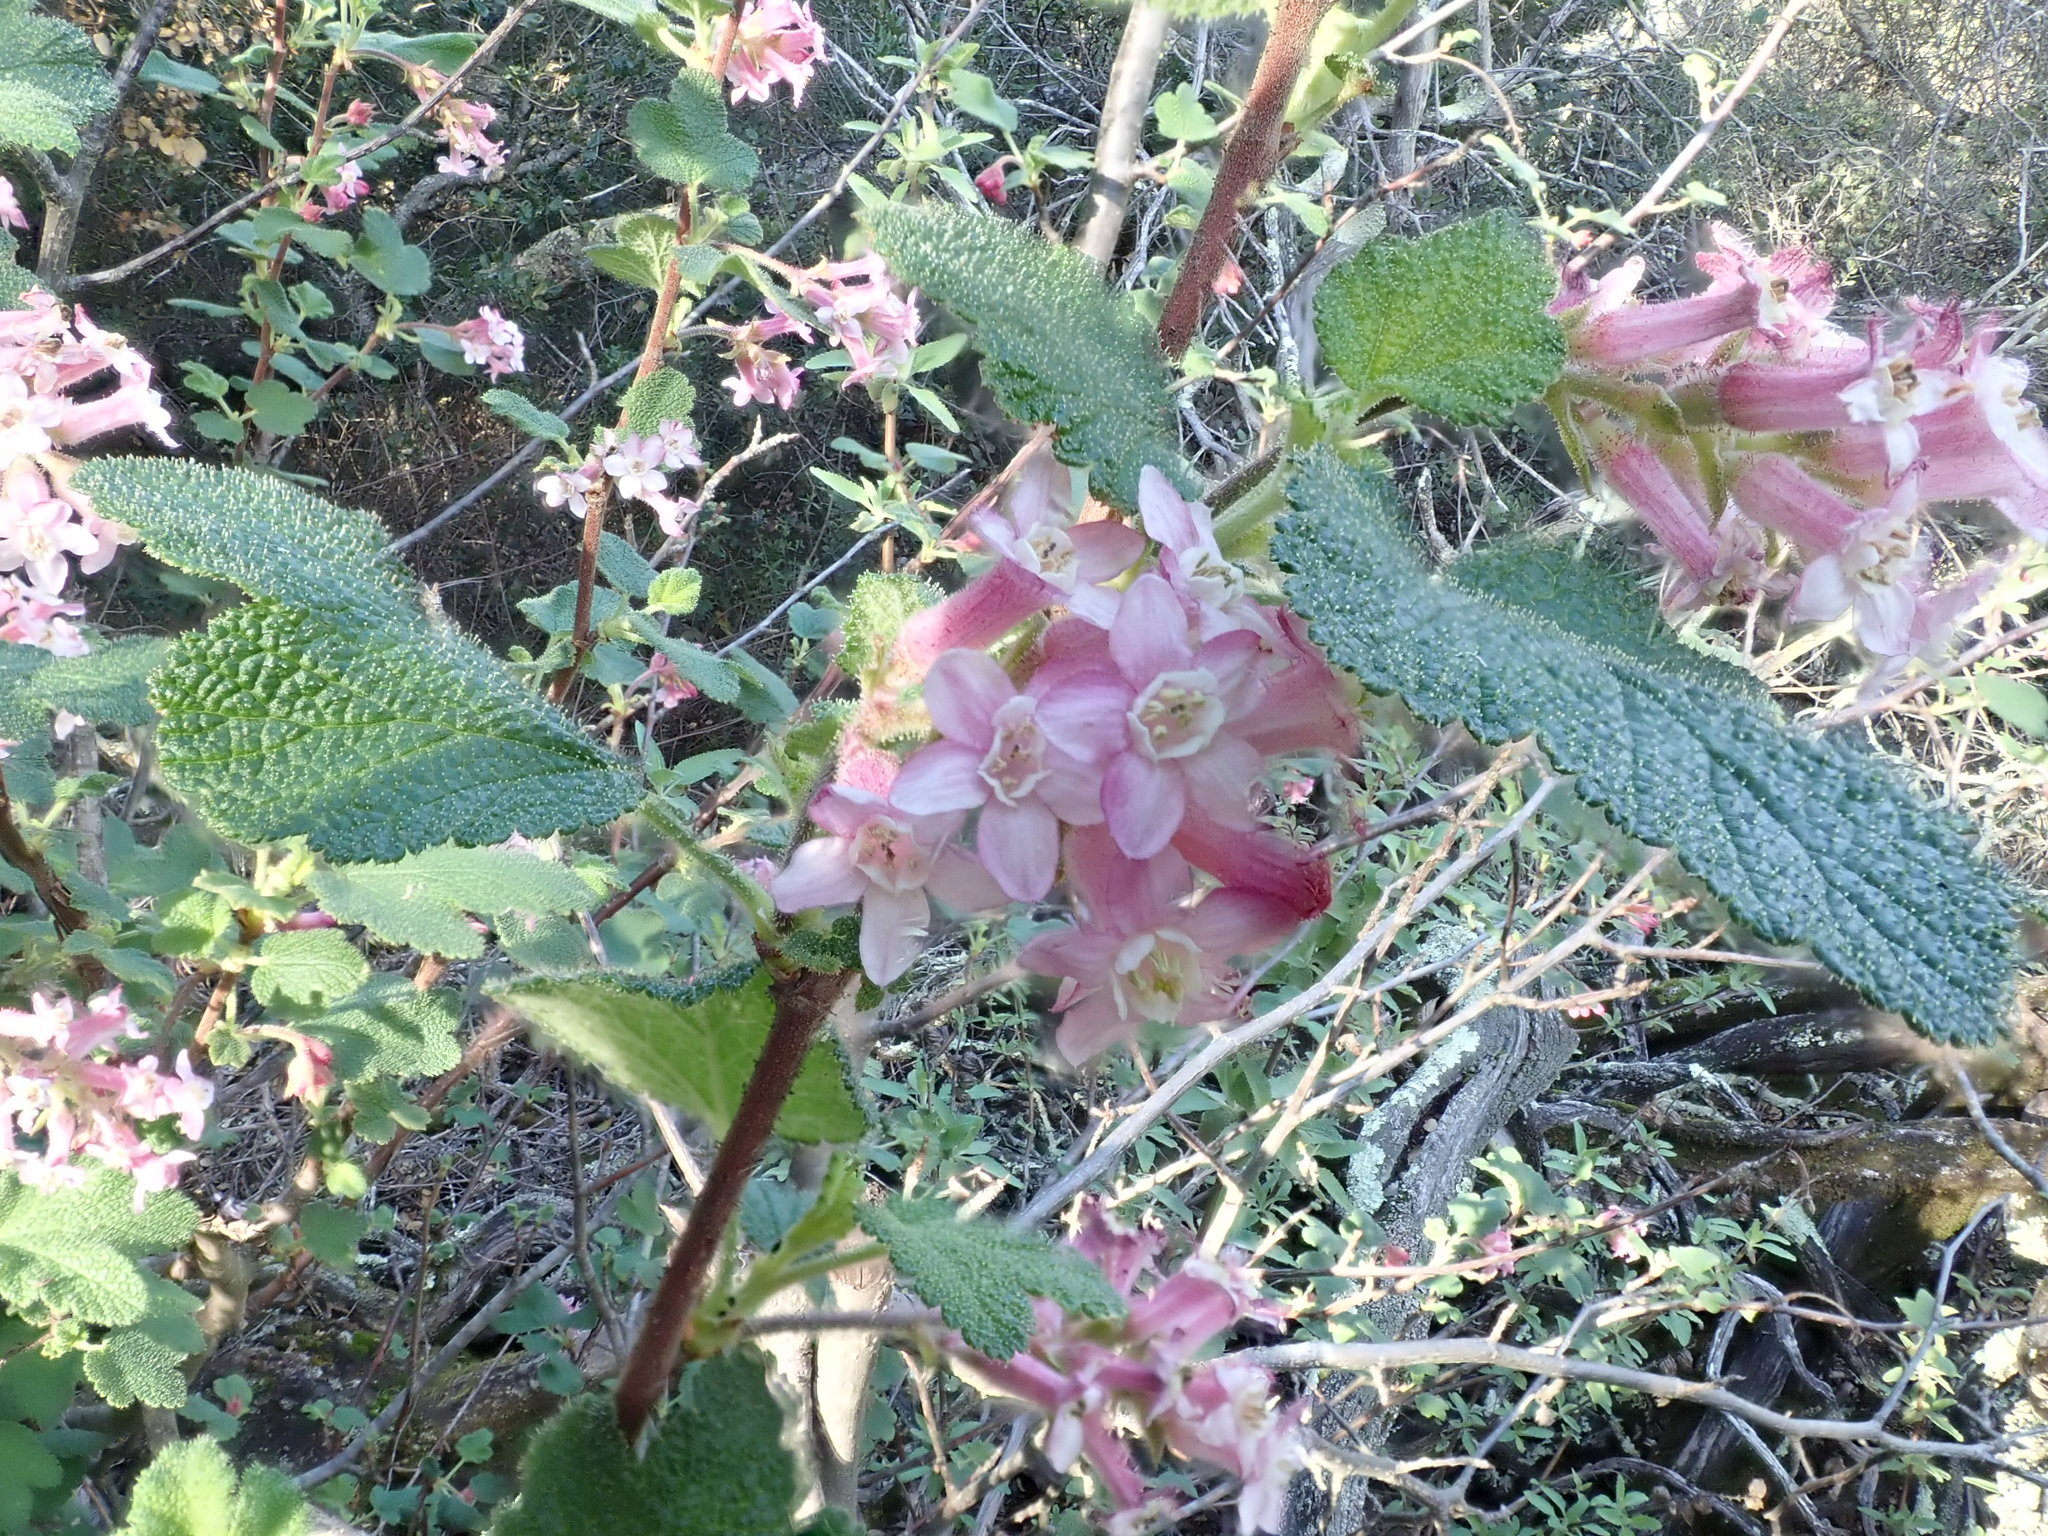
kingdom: Plantae
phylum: Tracheophyta
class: Magnoliopsida
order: Saxifragales
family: Grossulariaceae
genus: Ribes
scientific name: Ribes malvaceum
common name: Chaparral currant
